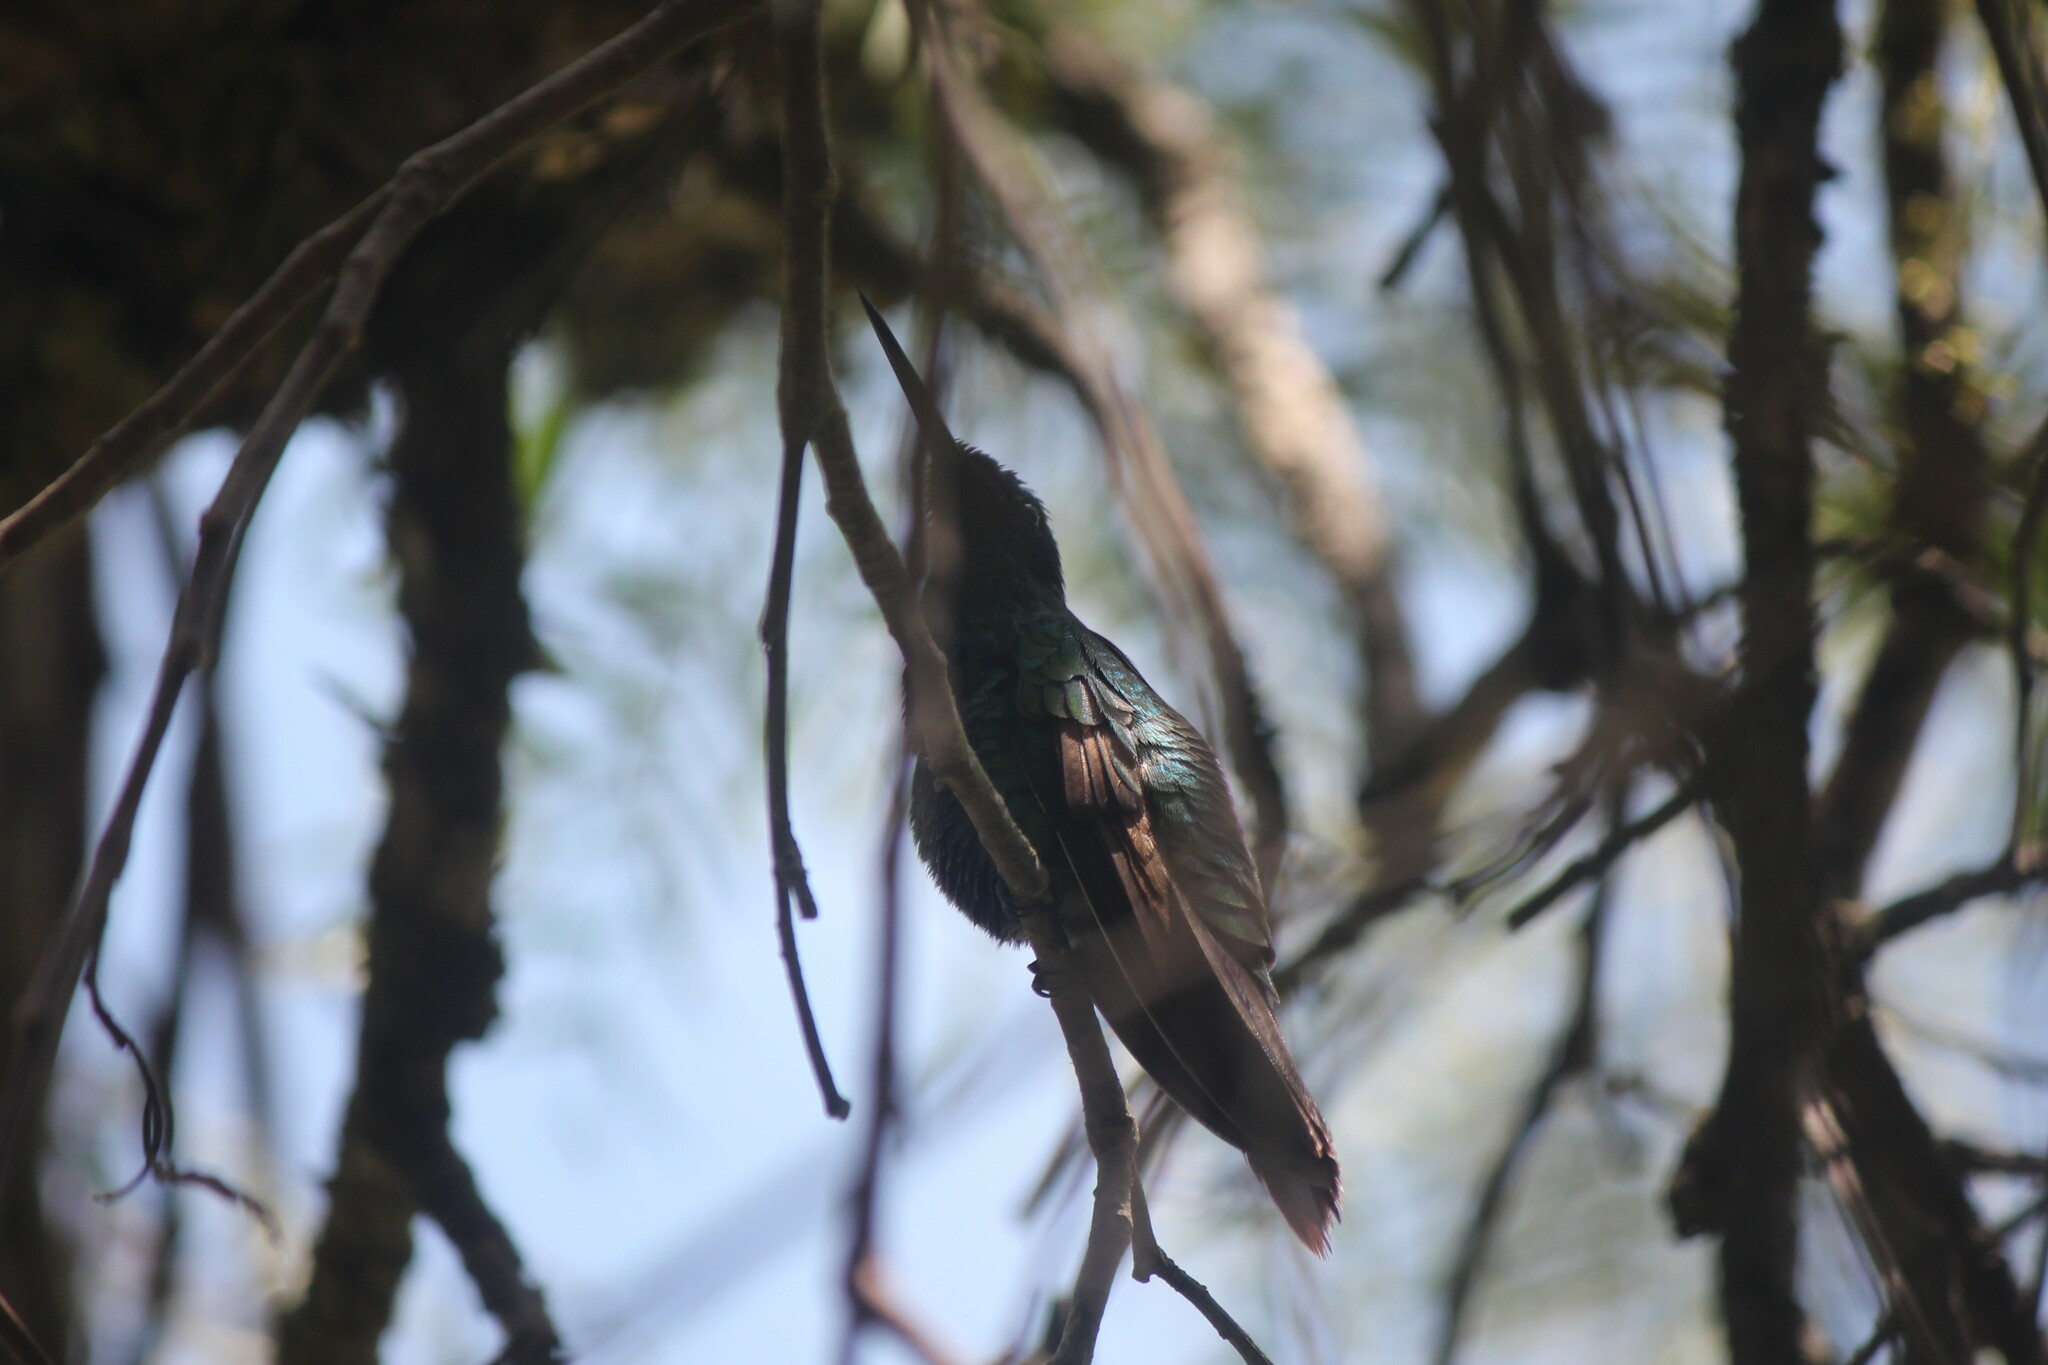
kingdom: Animalia
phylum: Chordata
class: Aves
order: Apodiformes
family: Trochilidae
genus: Colibri
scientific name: Colibri coruscans
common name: Sparkling violetear
